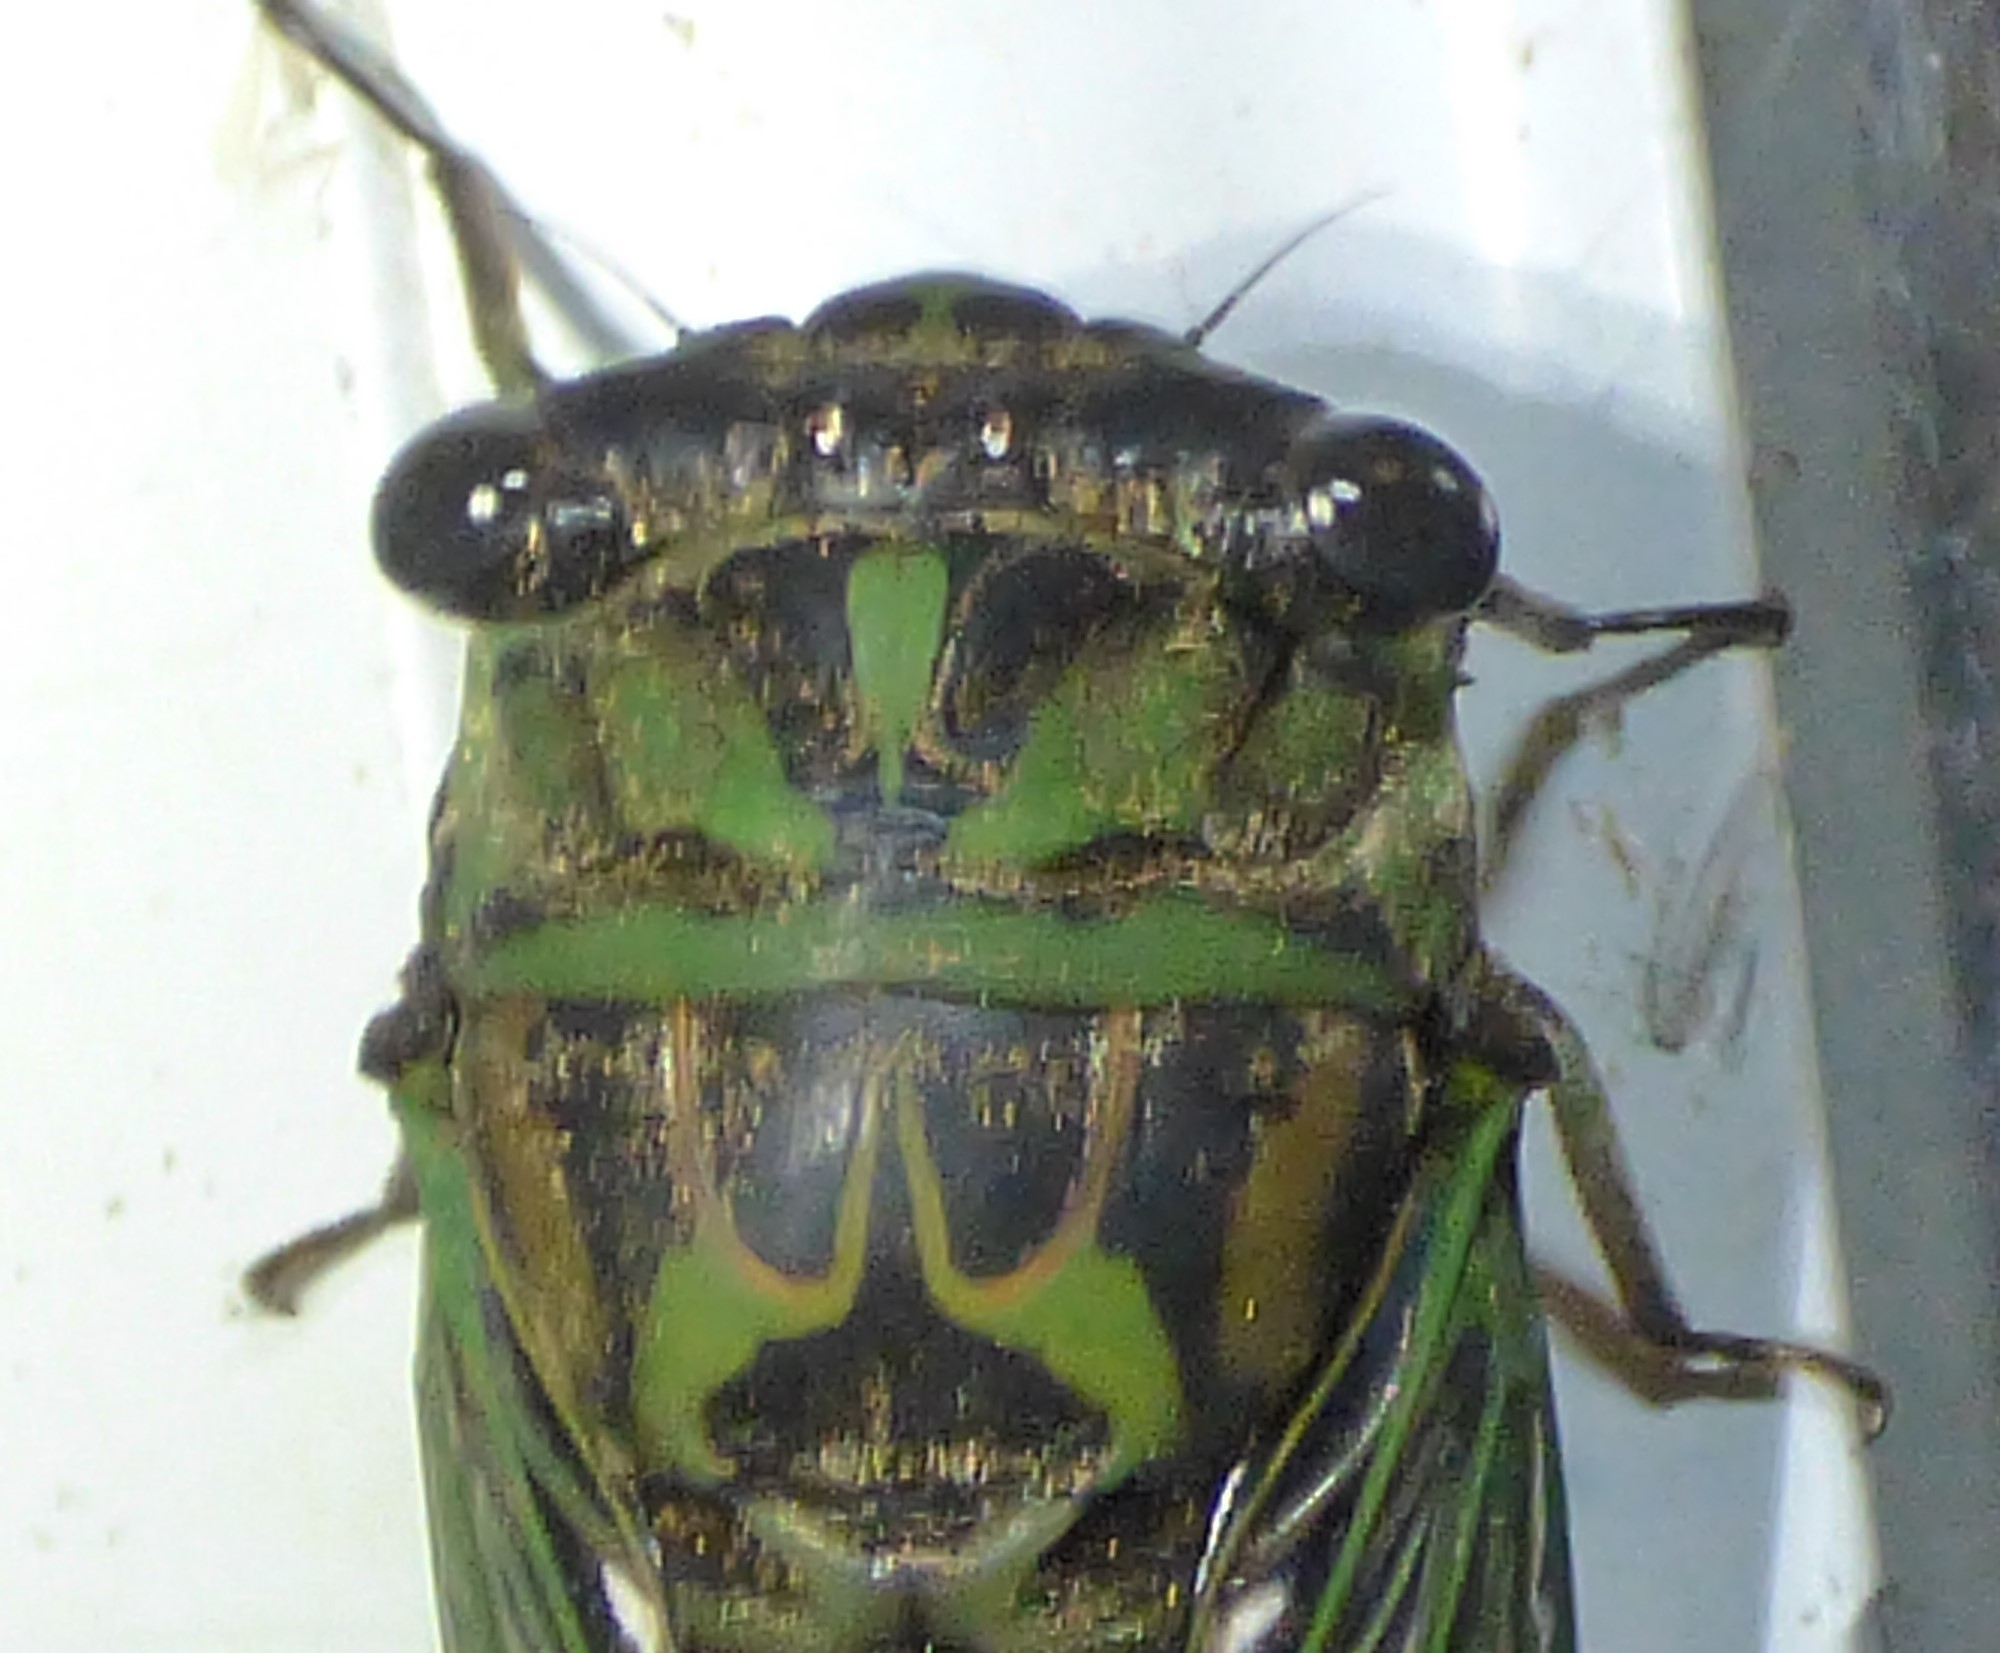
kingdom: Animalia
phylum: Arthropoda
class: Insecta
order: Hemiptera
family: Cicadidae
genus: Neotibicen
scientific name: Neotibicen linnei
